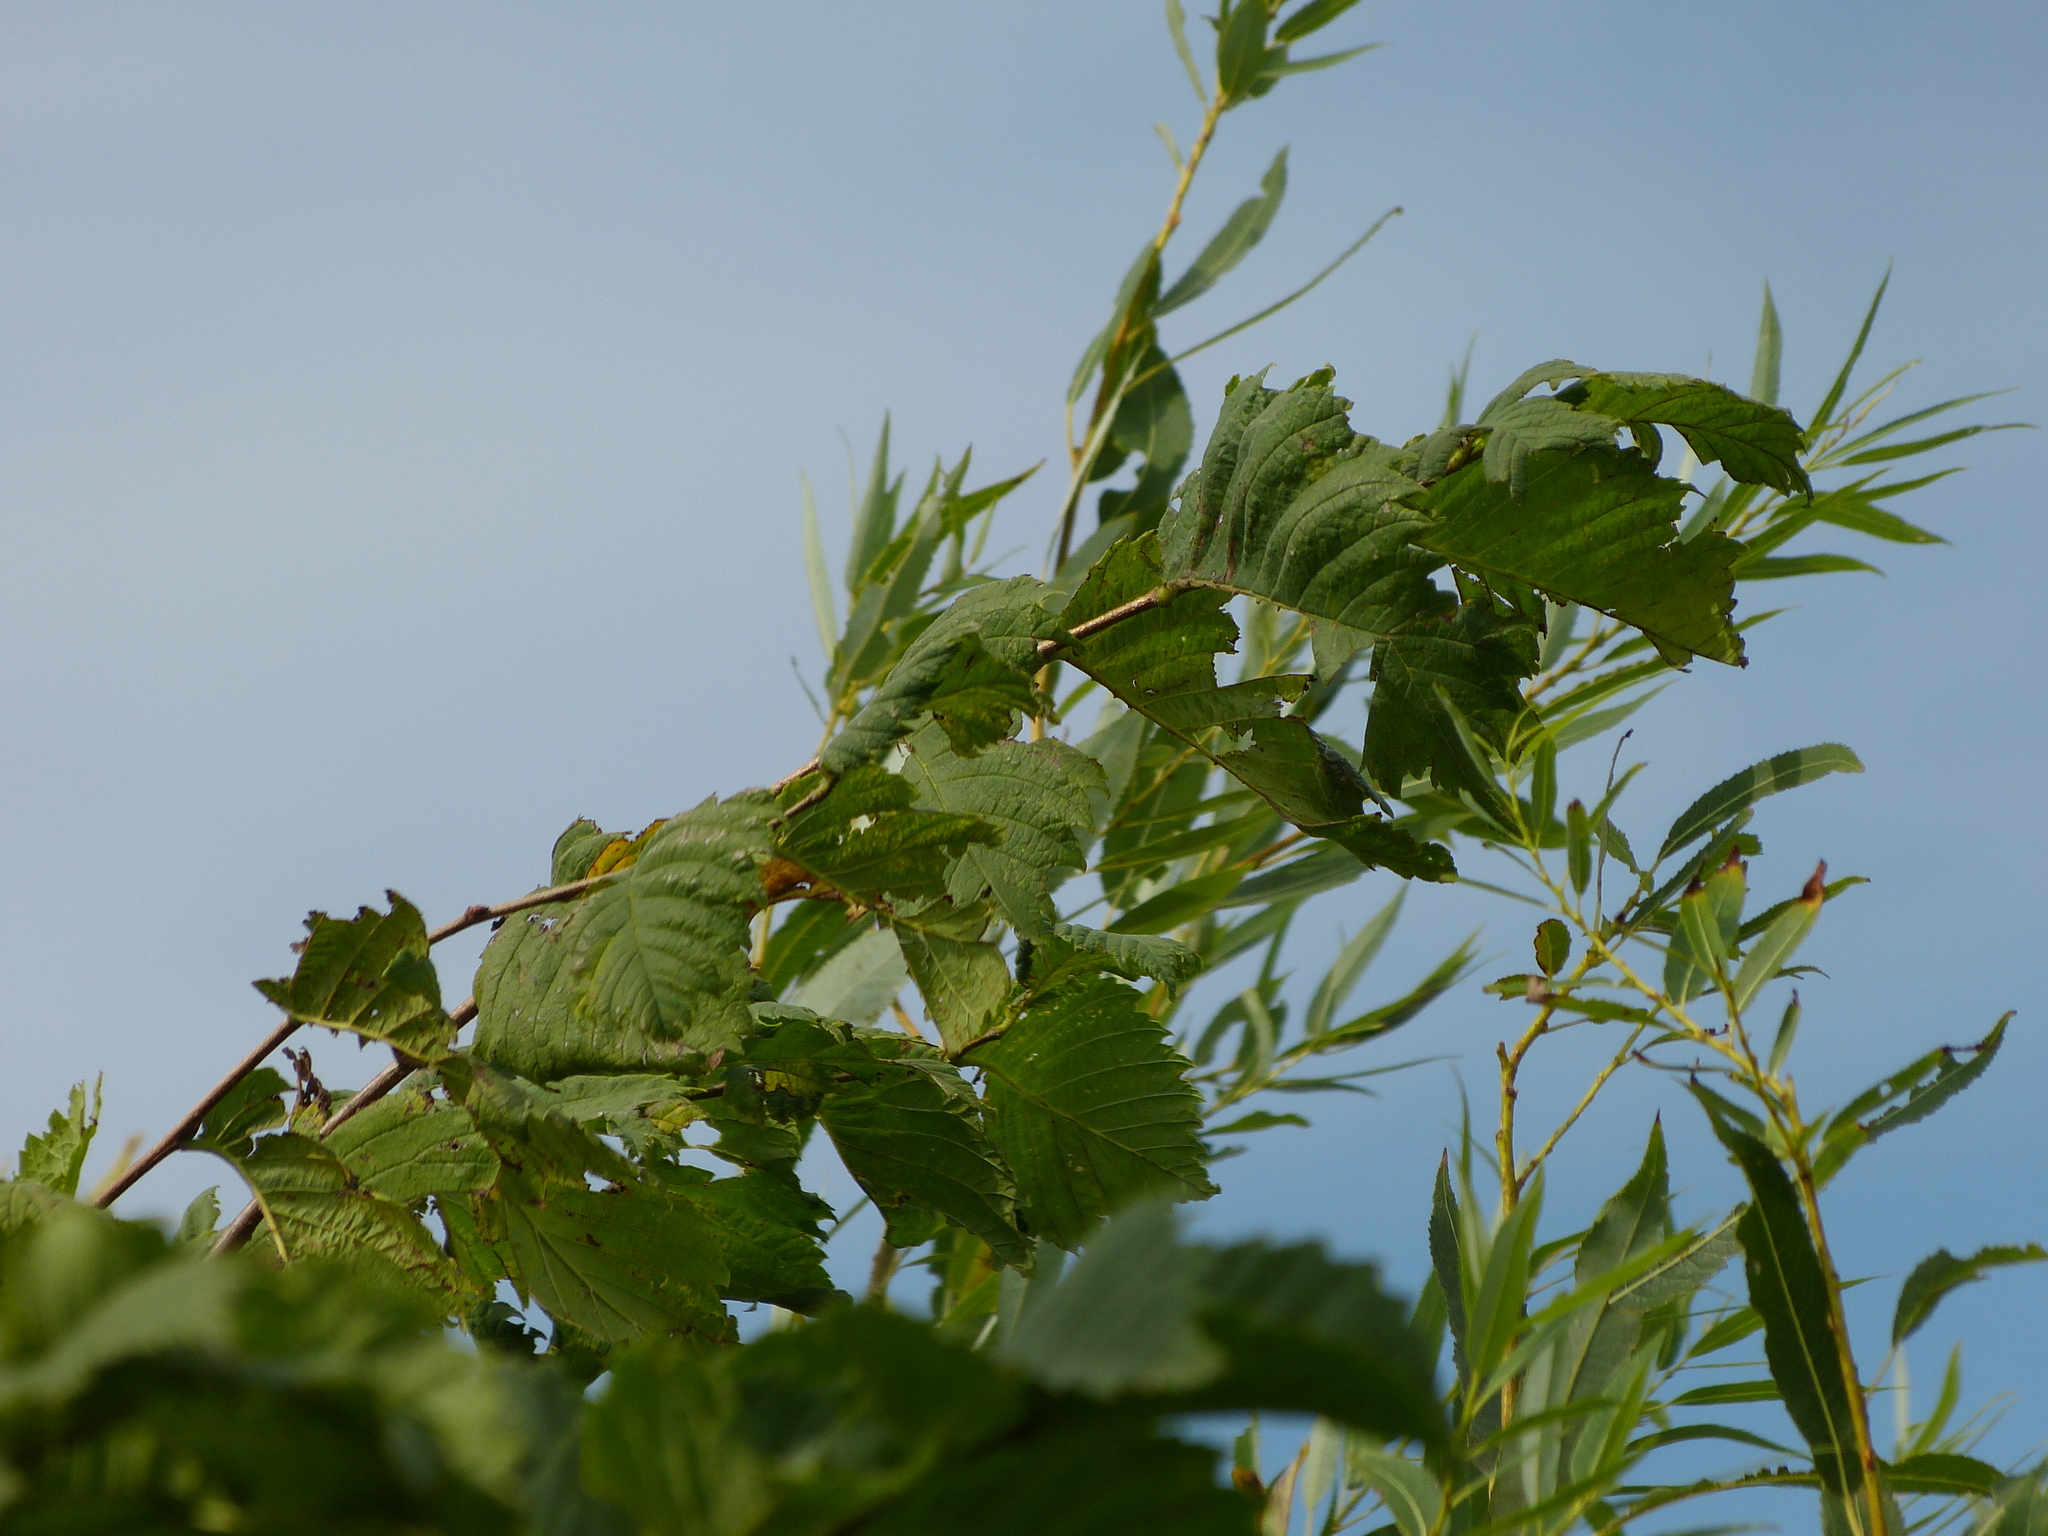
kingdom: Plantae
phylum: Tracheophyta
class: Magnoliopsida
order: Rosales
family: Ulmaceae
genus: Ulmus
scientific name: Ulmus laevis
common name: European white-elm
